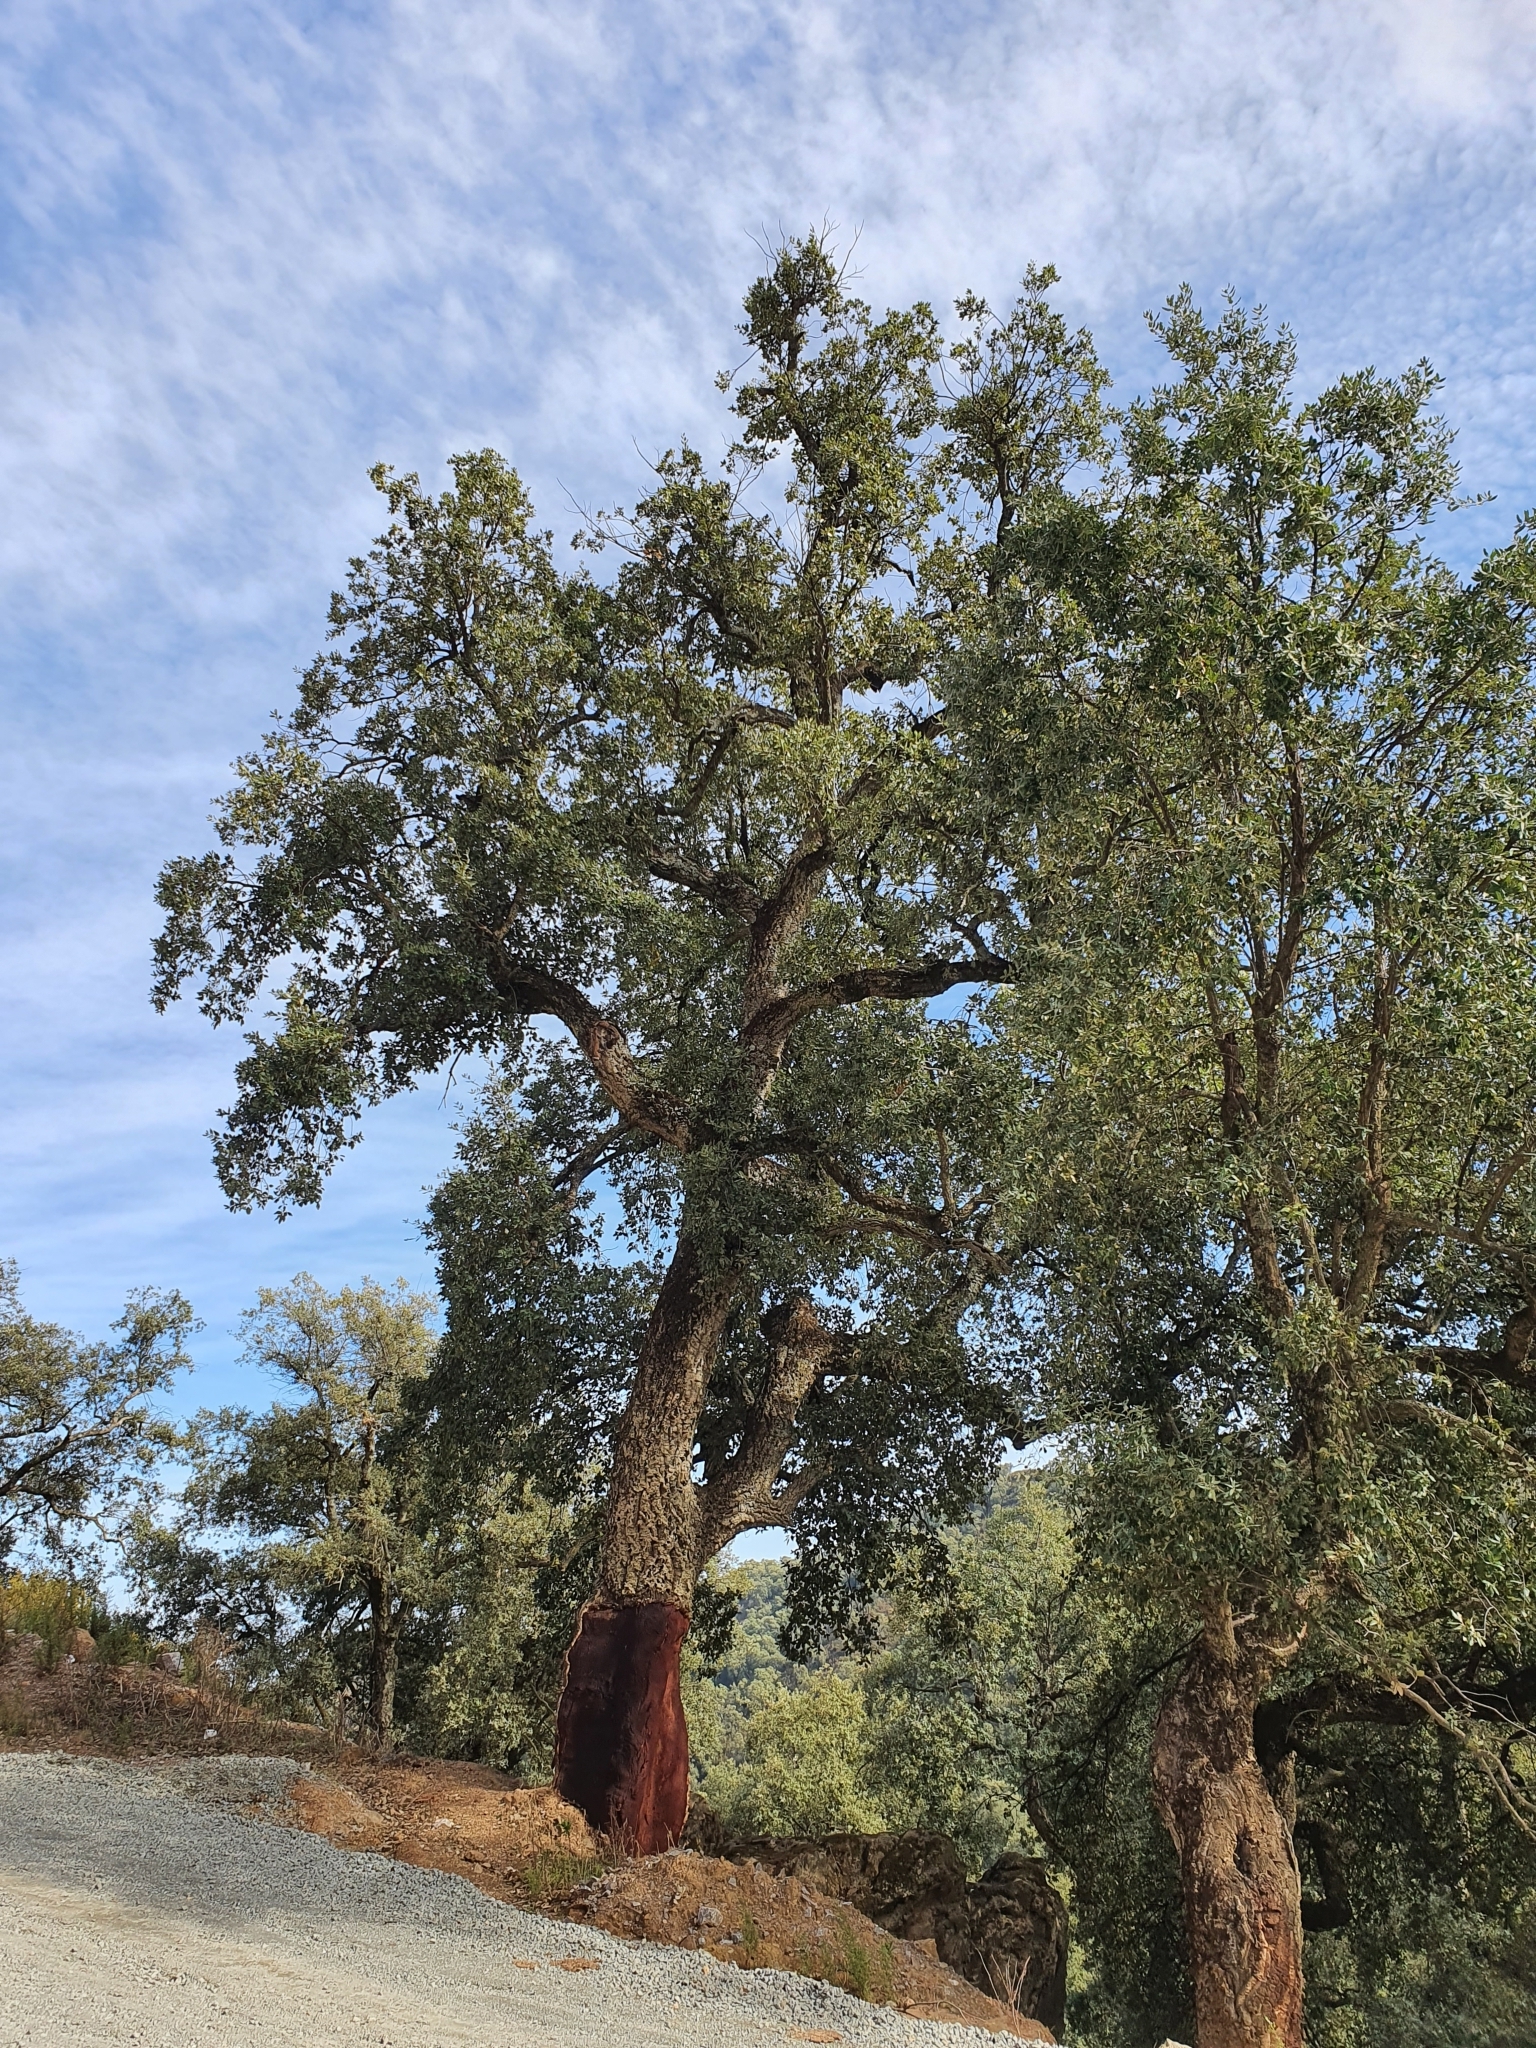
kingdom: Plantae
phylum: Tracheophyta
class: Magnoliopsida
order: Fagales
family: Fagaceae
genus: Quercus
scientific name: Quercus suber
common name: Cork oak
